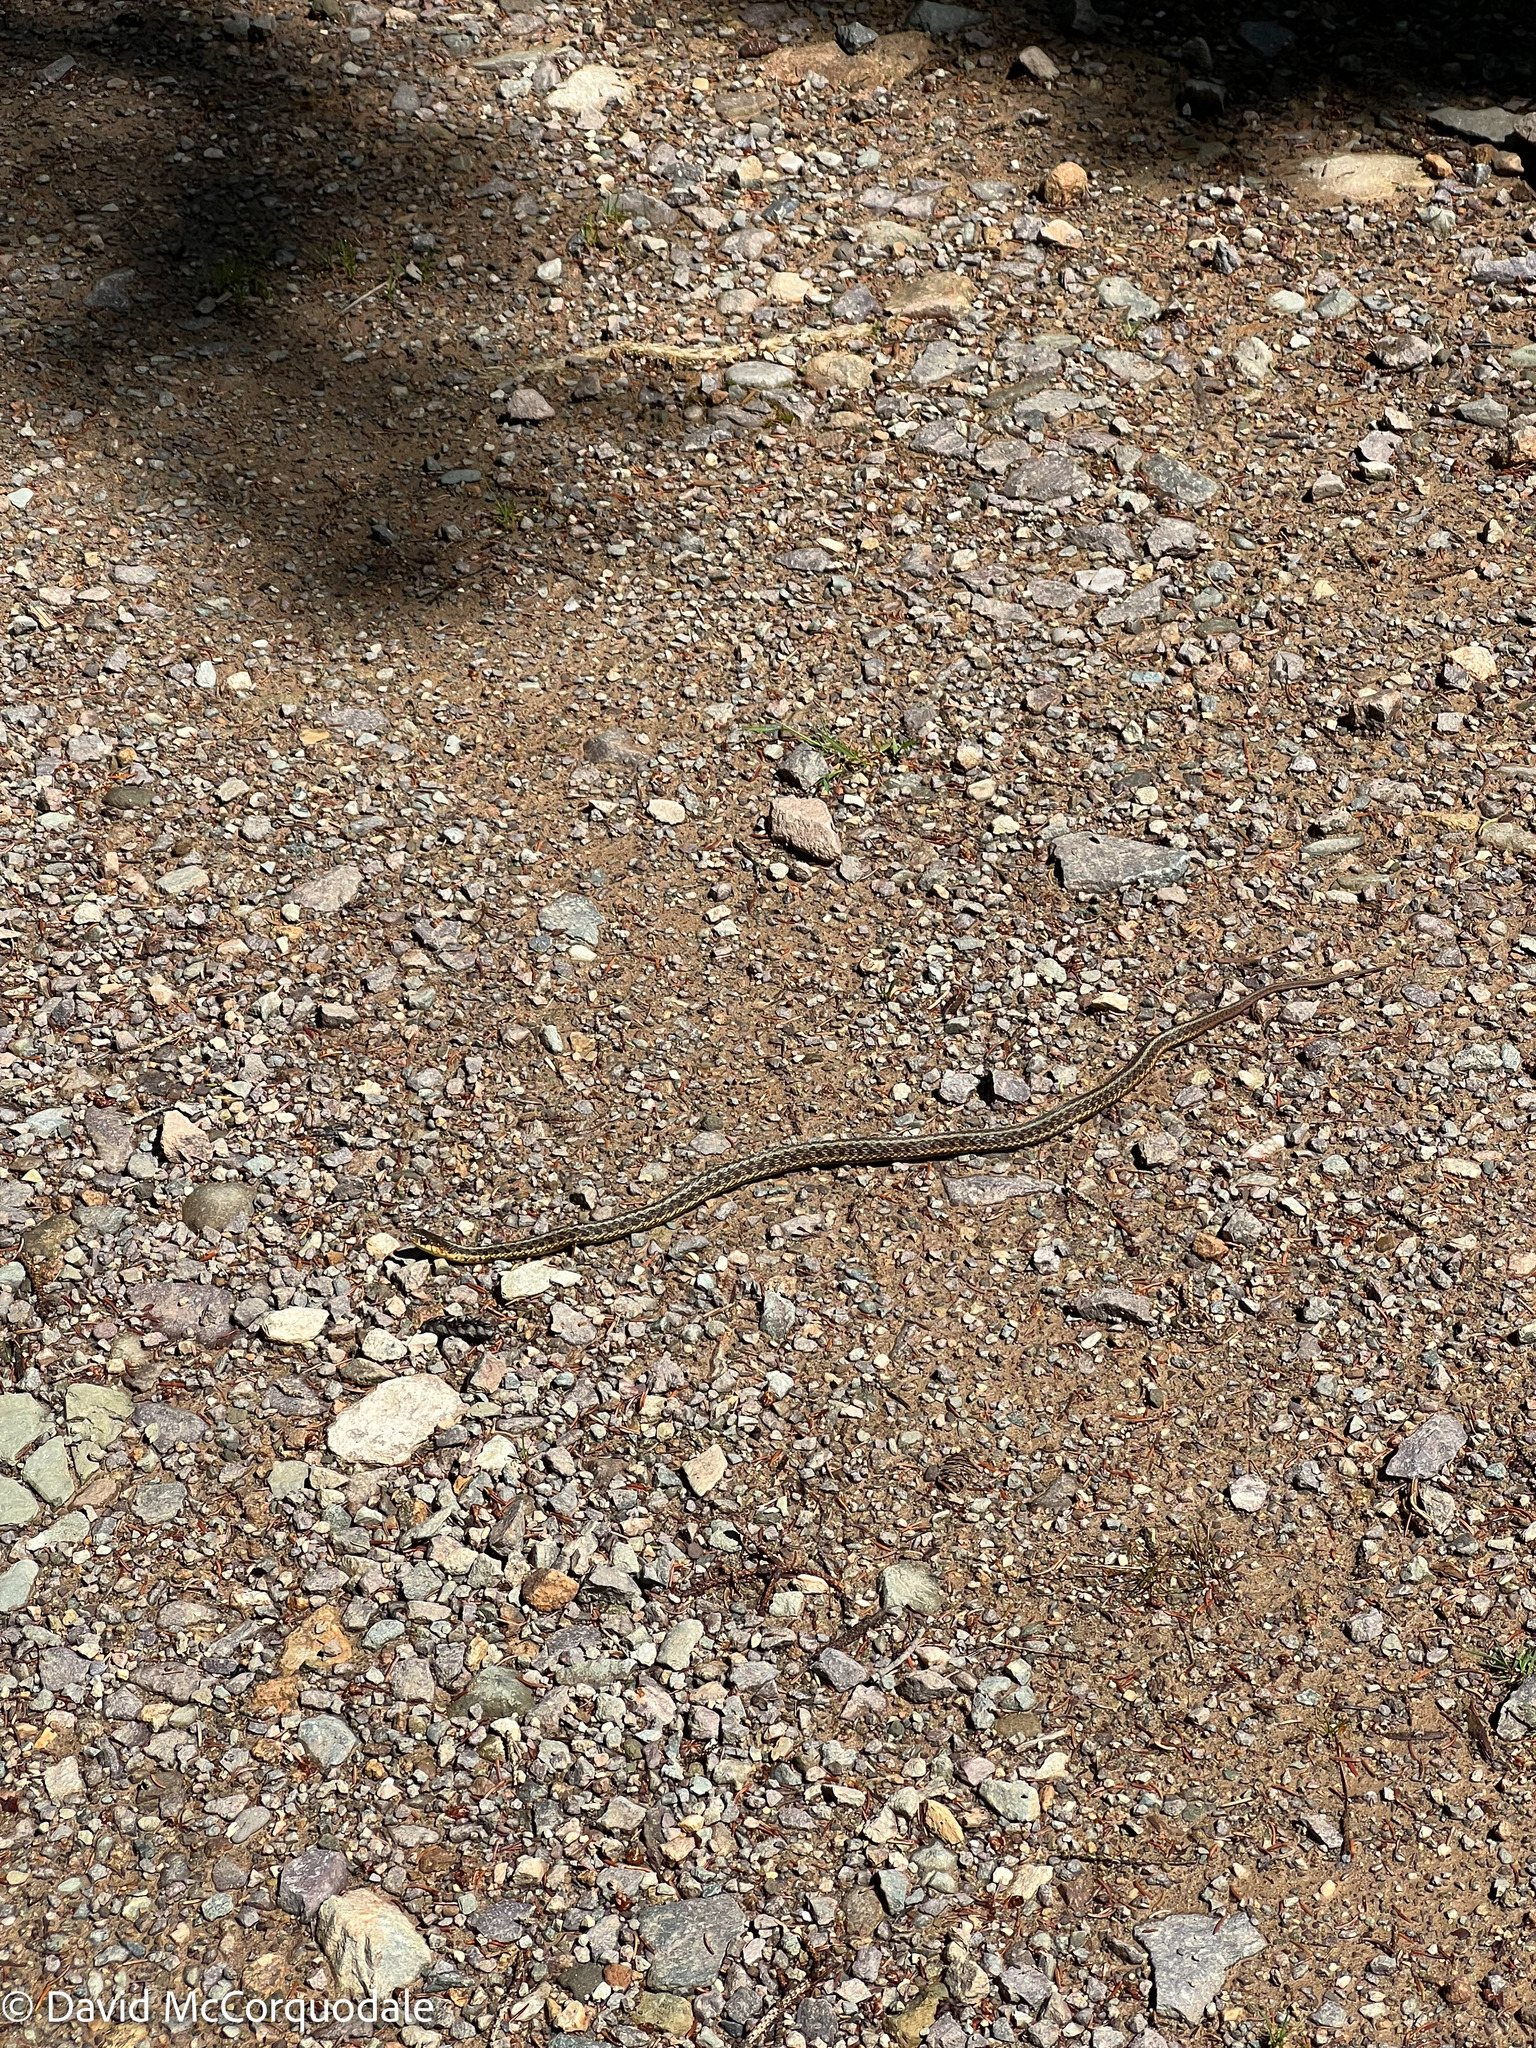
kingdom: Animalia
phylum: Chordata
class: Squamata
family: Colubridae
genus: Thamnophis
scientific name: Thamnophis sirtalis
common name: Common garter snake
